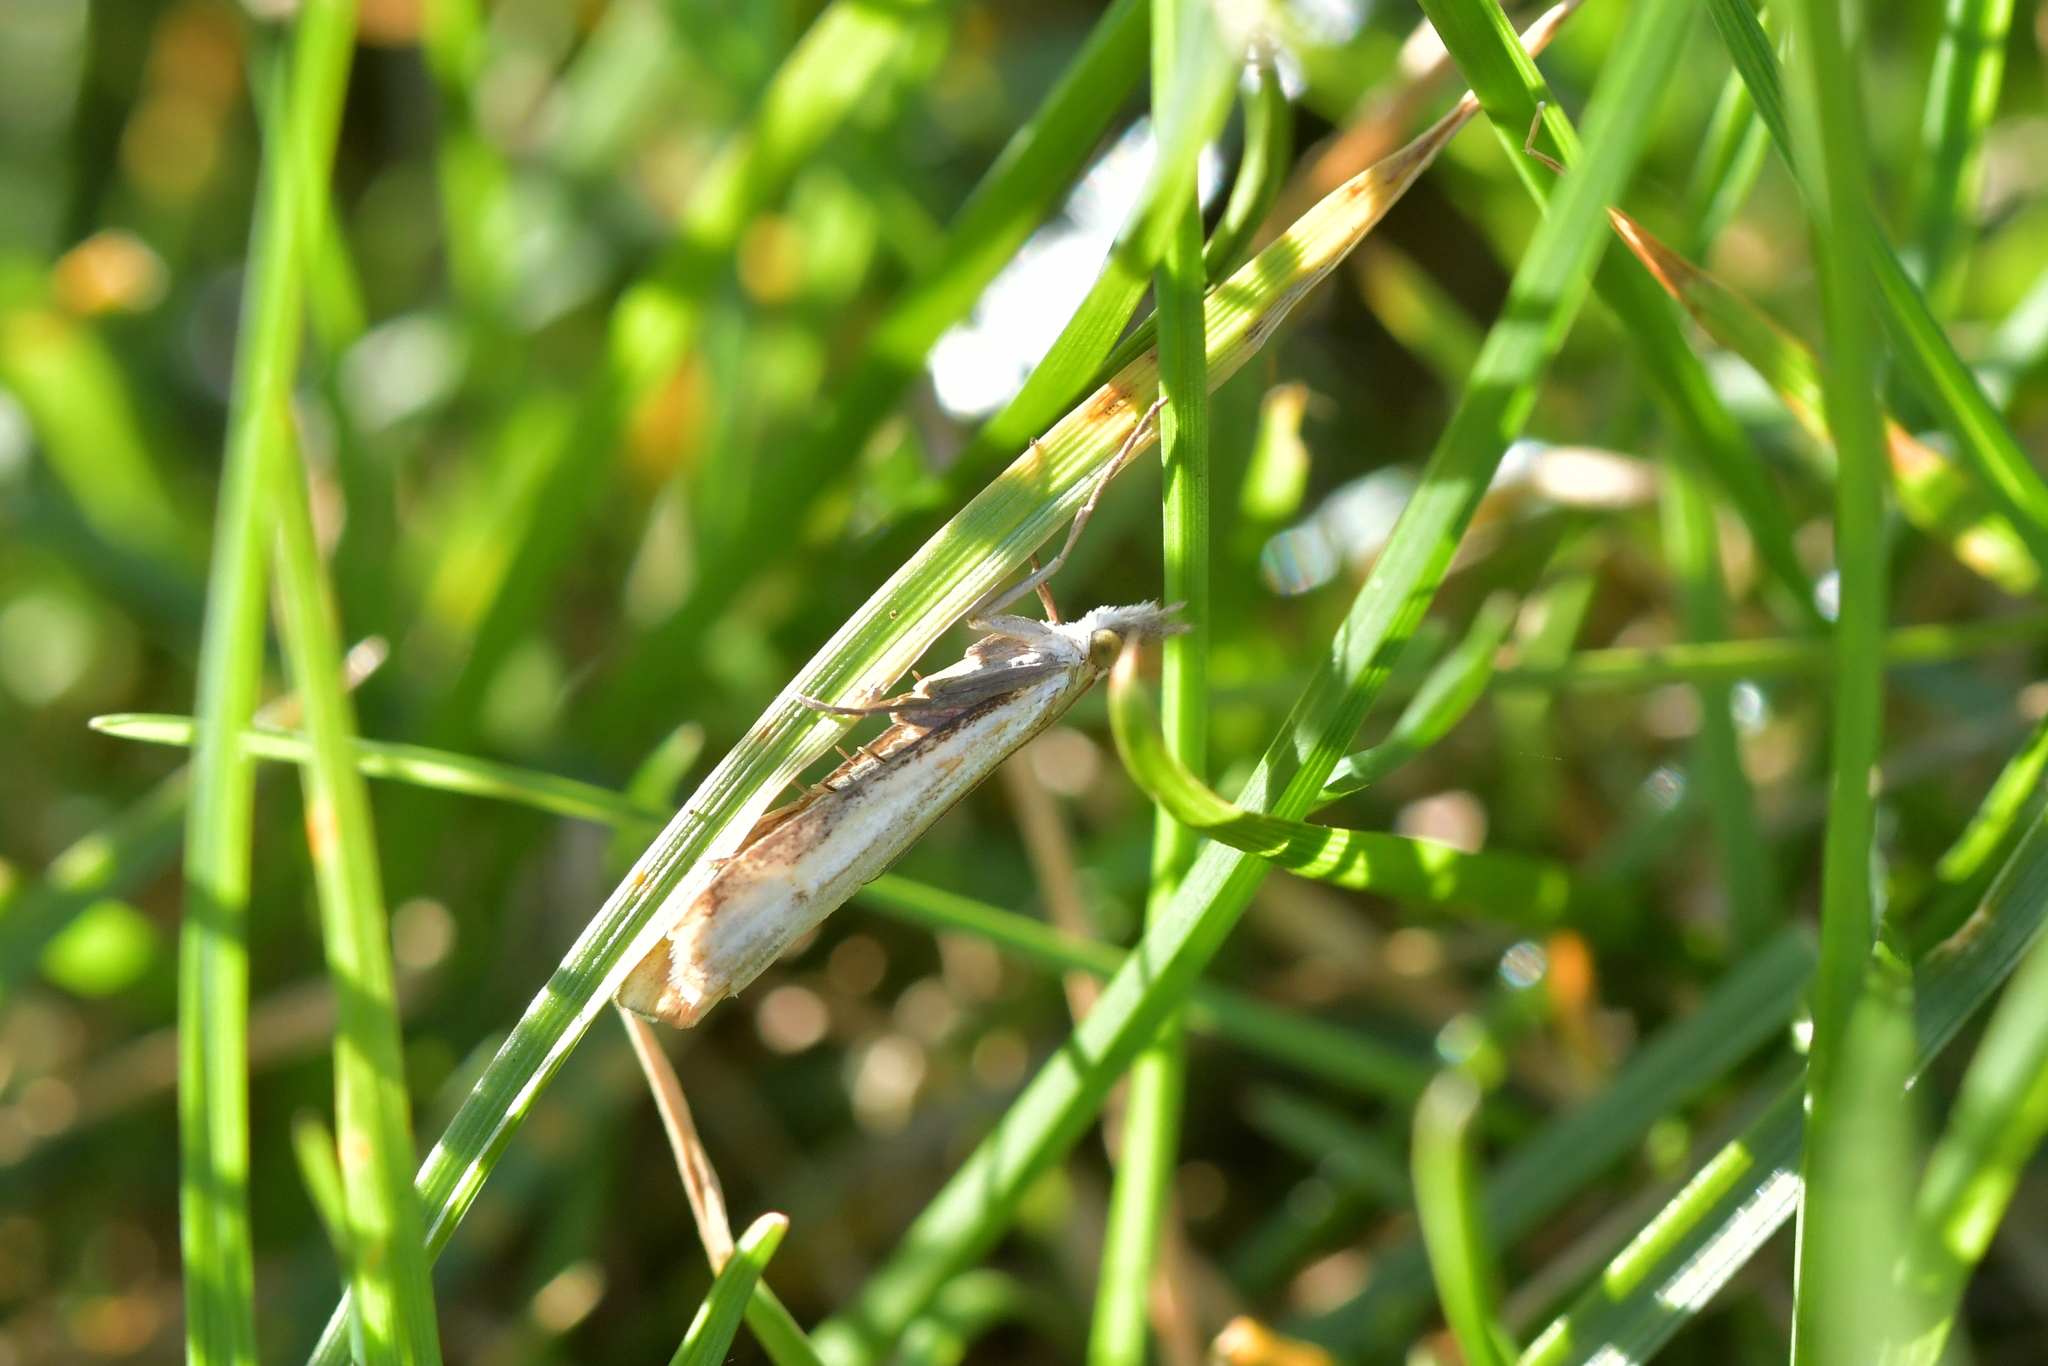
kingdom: Animalia
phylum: Arthropoda
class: Insecta
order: Lepidoptera
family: Crambidae
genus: Orocrambus
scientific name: Orocrambus vulgaris
